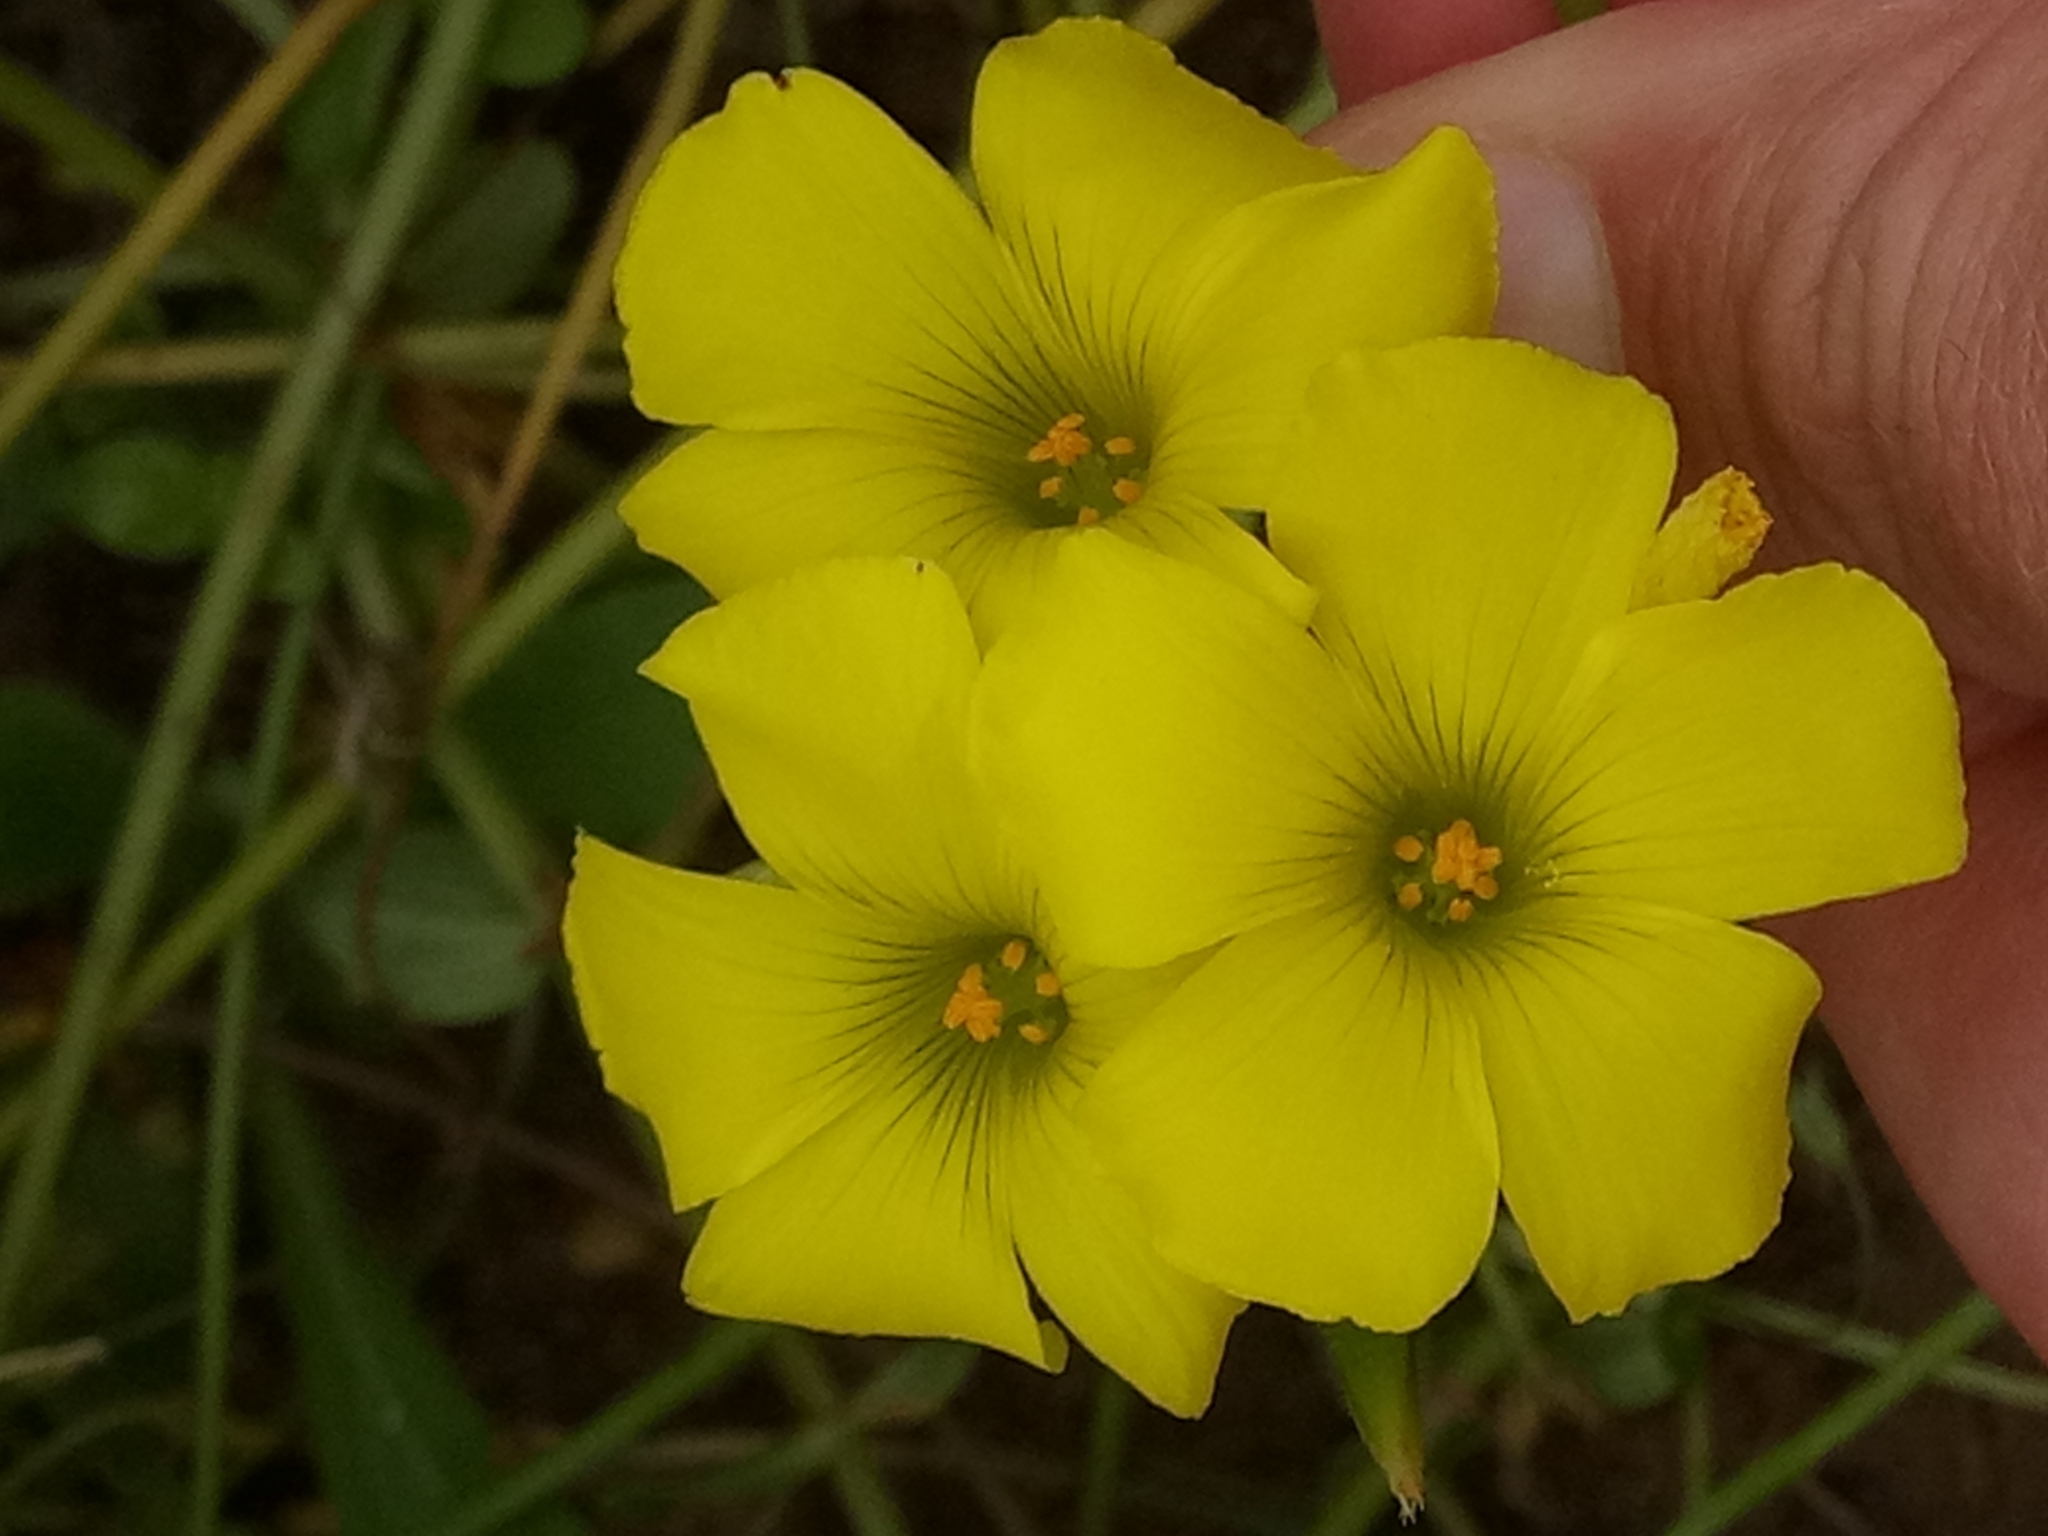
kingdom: Plantae
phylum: Tracheophyta
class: Magnoliopsida
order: Oxalidales
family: Oxalidaceae
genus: Oxalis
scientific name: Oxalis pes-caprae
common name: Bermuda-buttercup
